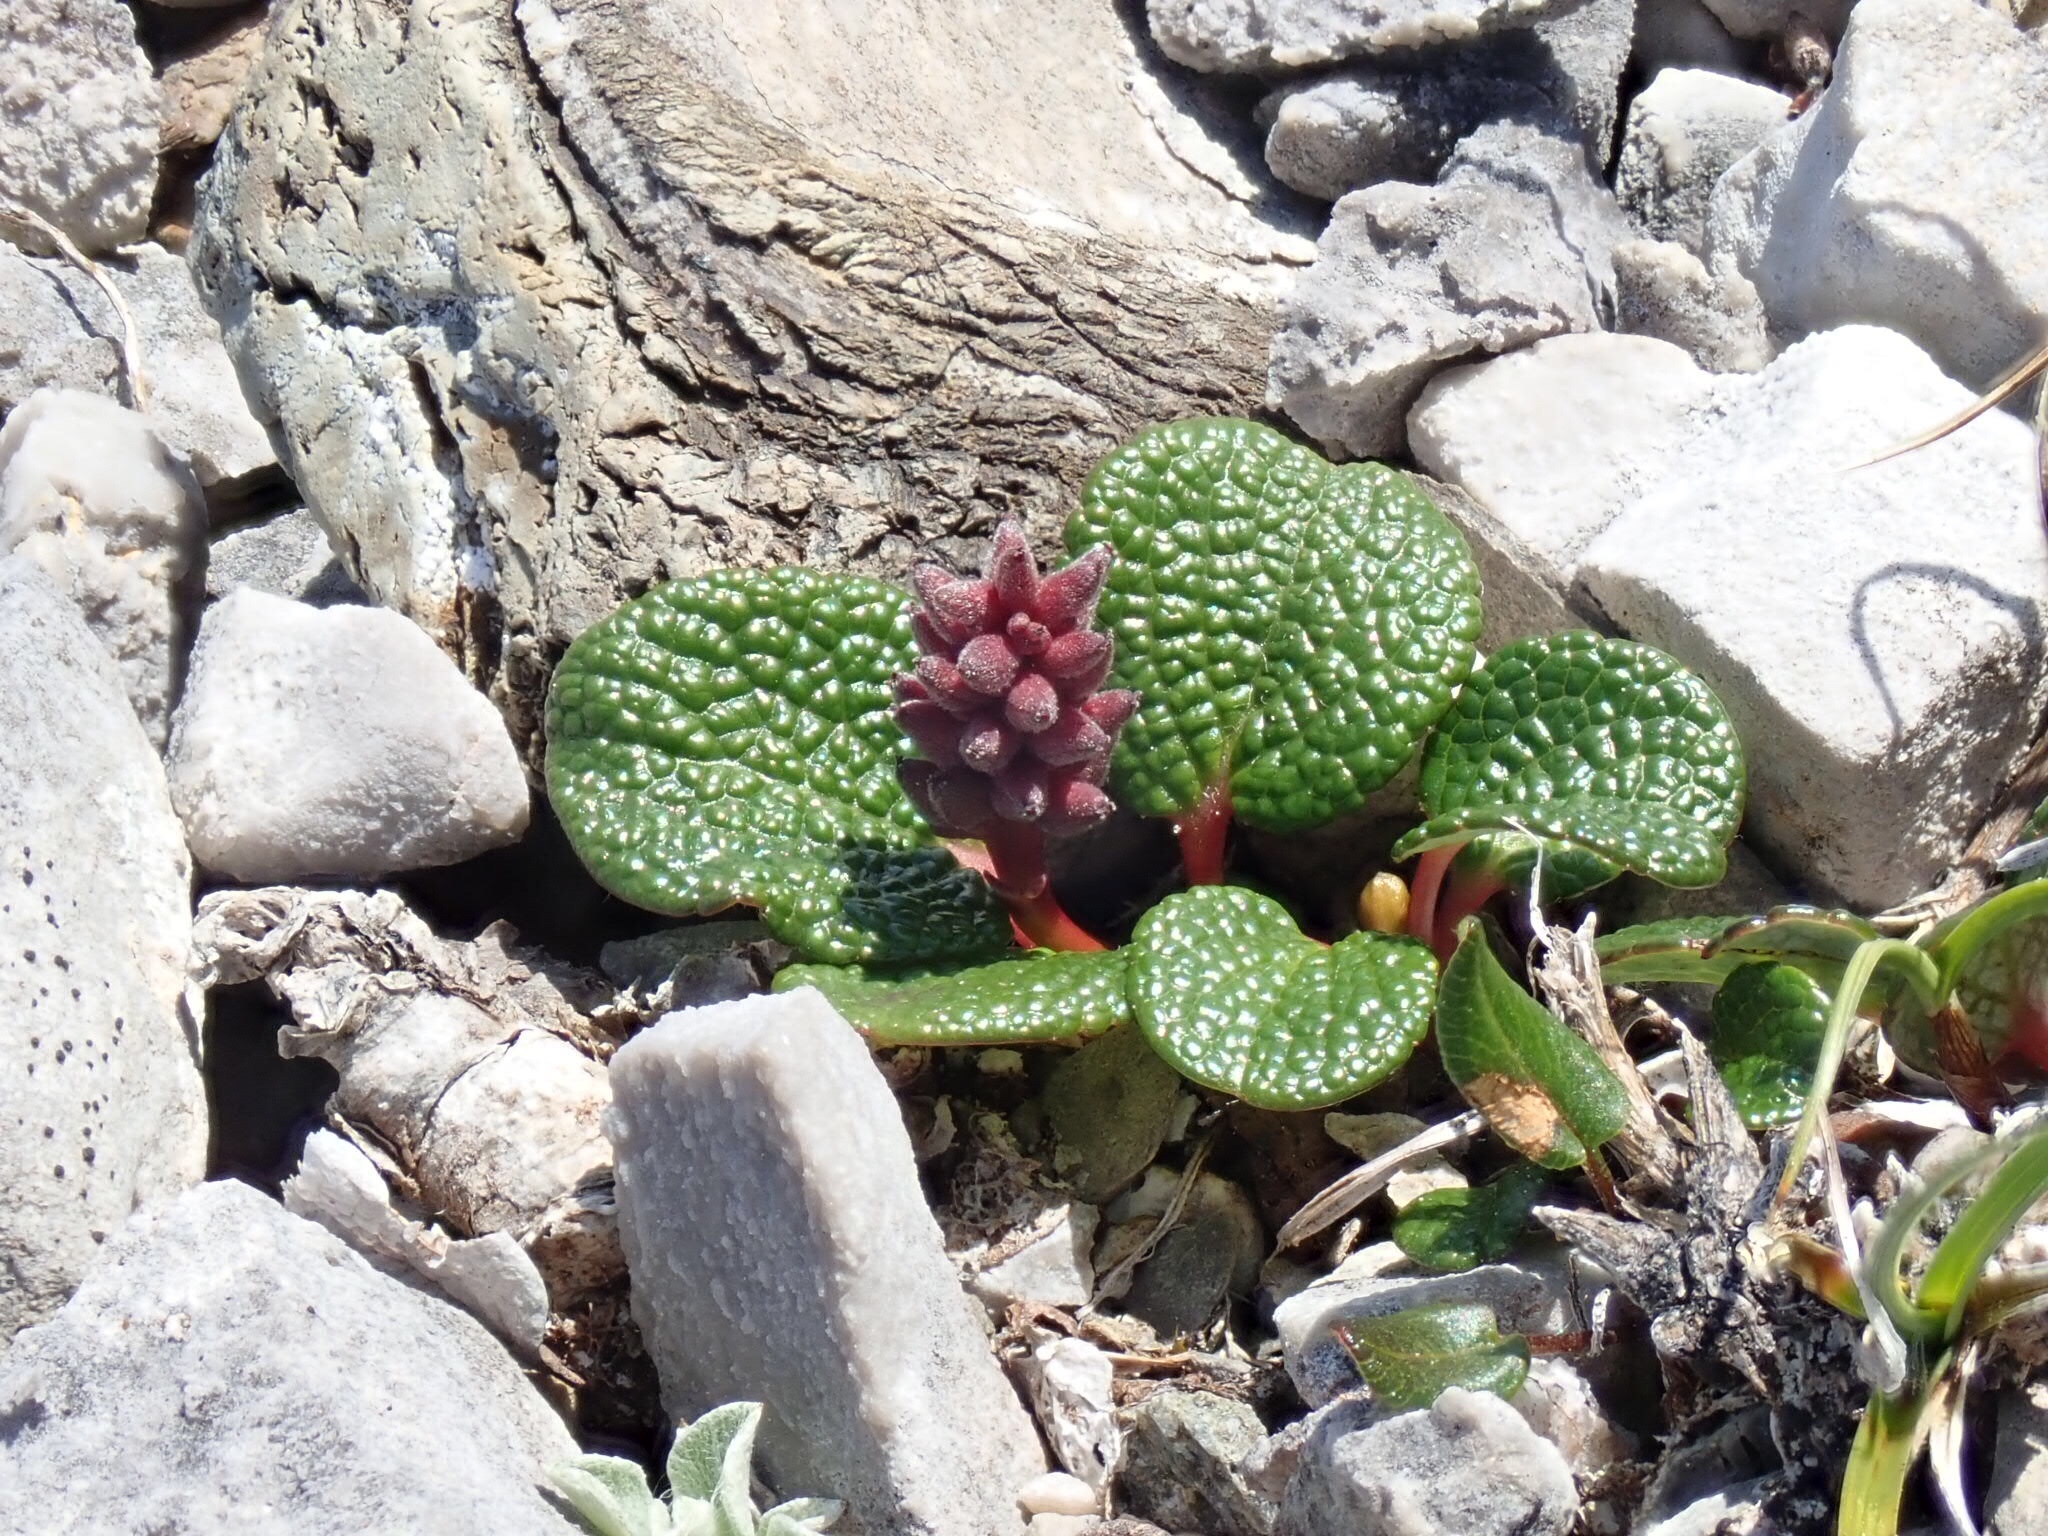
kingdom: Plantae
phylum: Tracheophyta
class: Magnoliopsida
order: Malpighiales
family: Salicaceae
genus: Salix
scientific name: Salix reticulata
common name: Net-leaved willow
